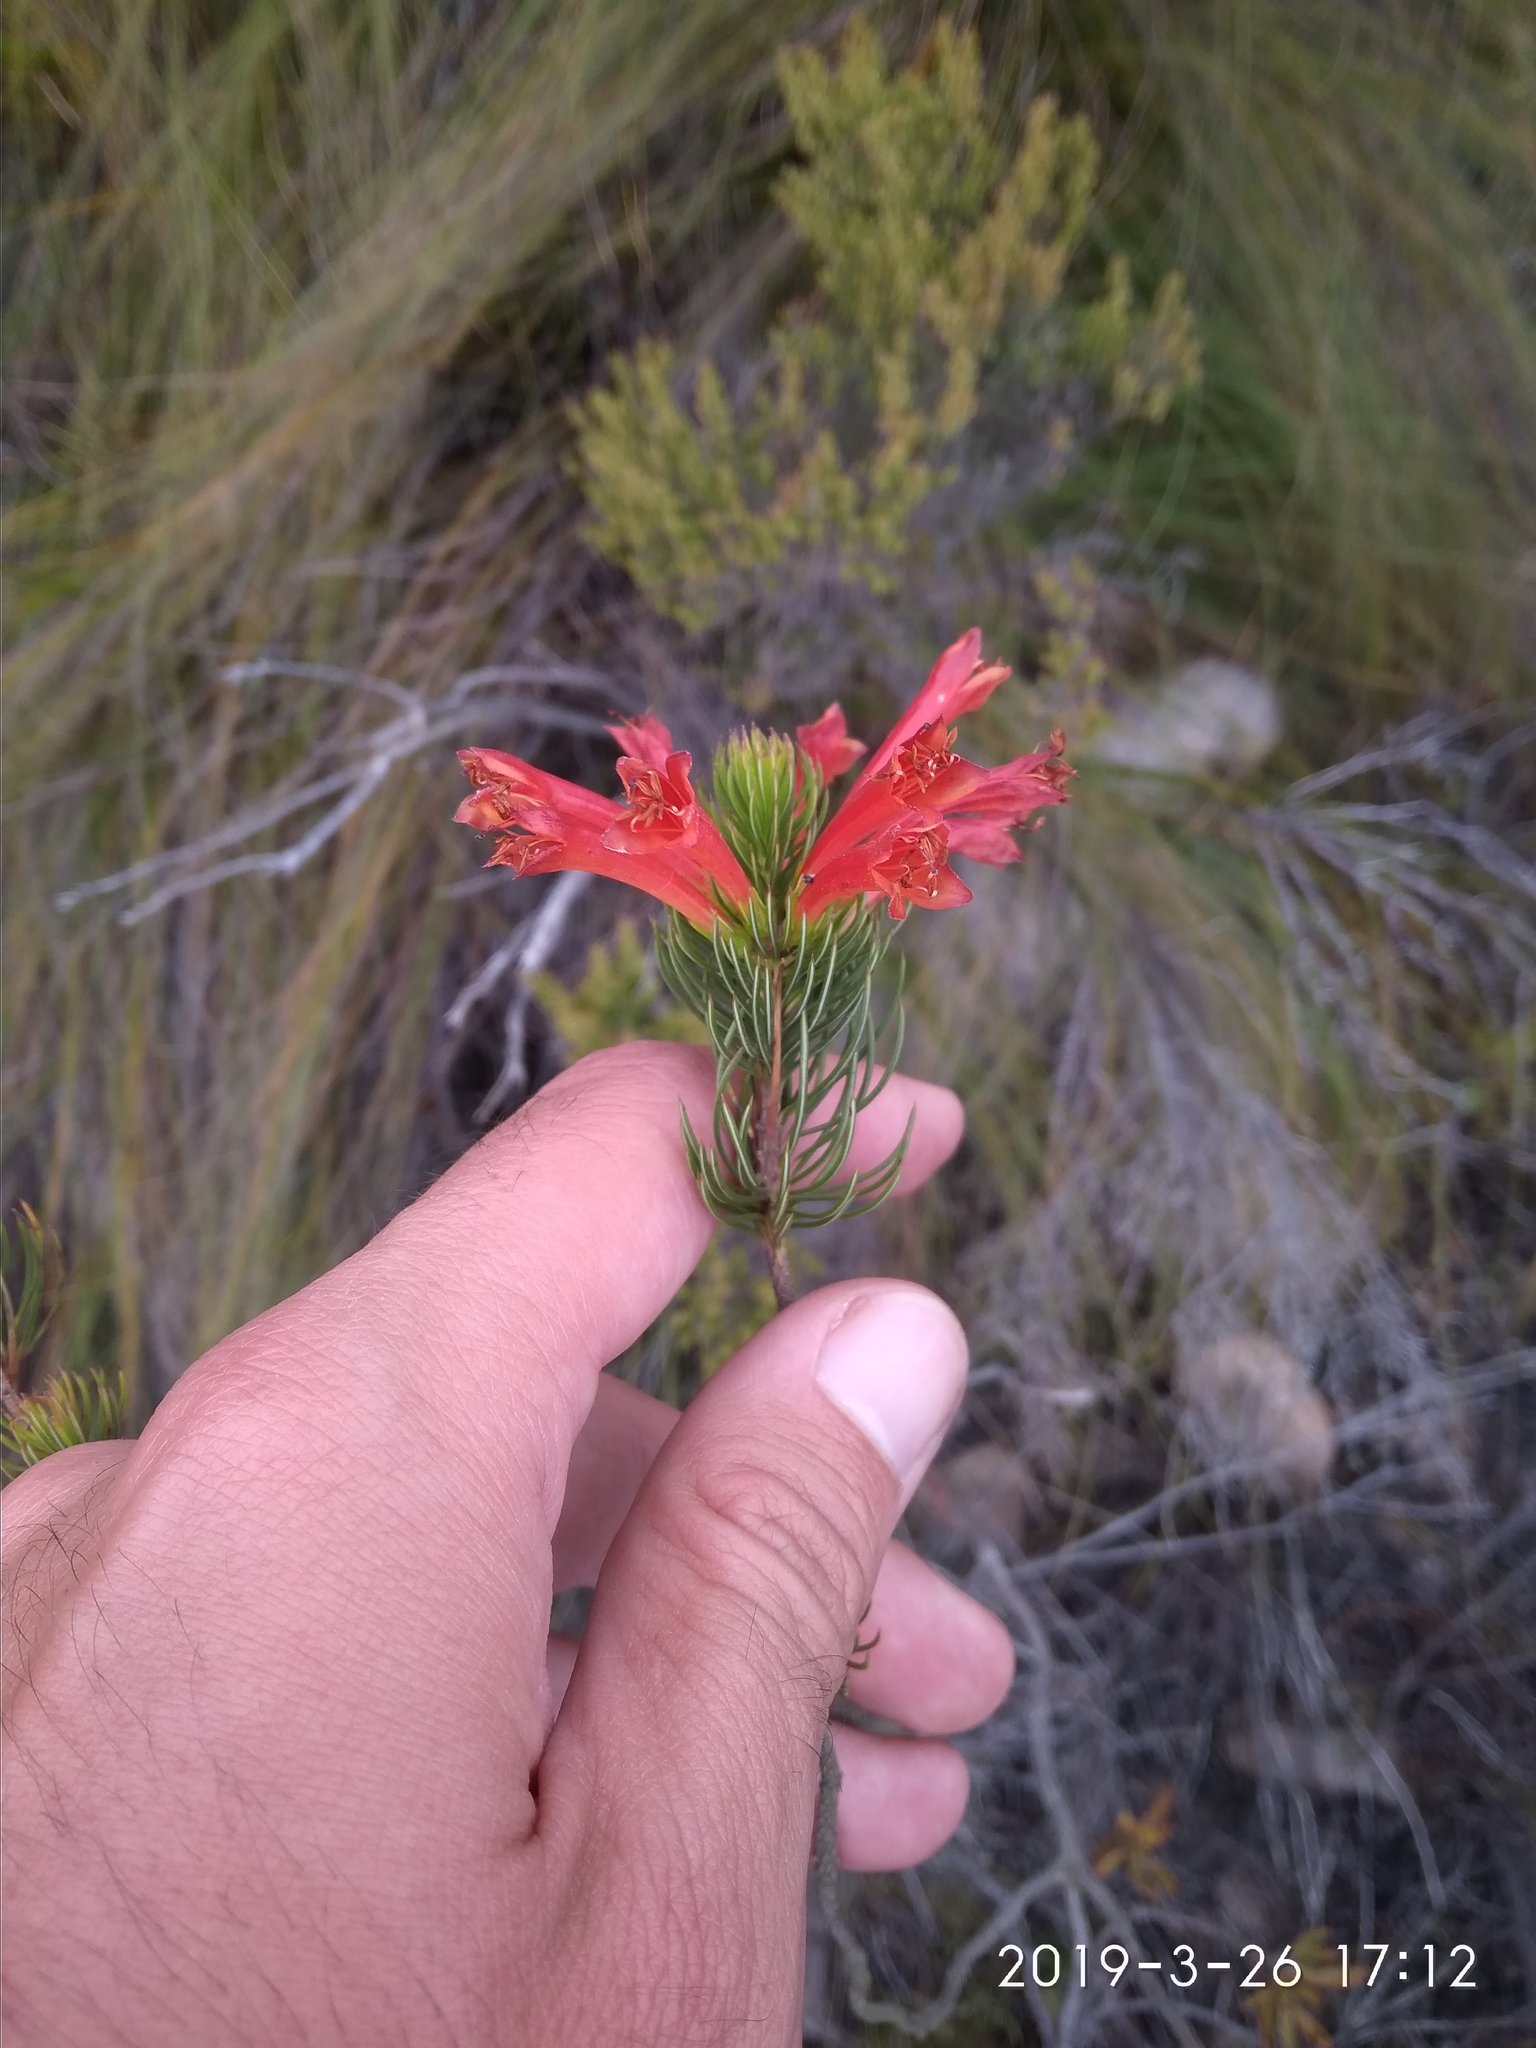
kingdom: Plantae
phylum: Tracheophyta
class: Magnoliopsida
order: Ericales
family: Ericaceae
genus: Erica
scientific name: Erica grandiflora
